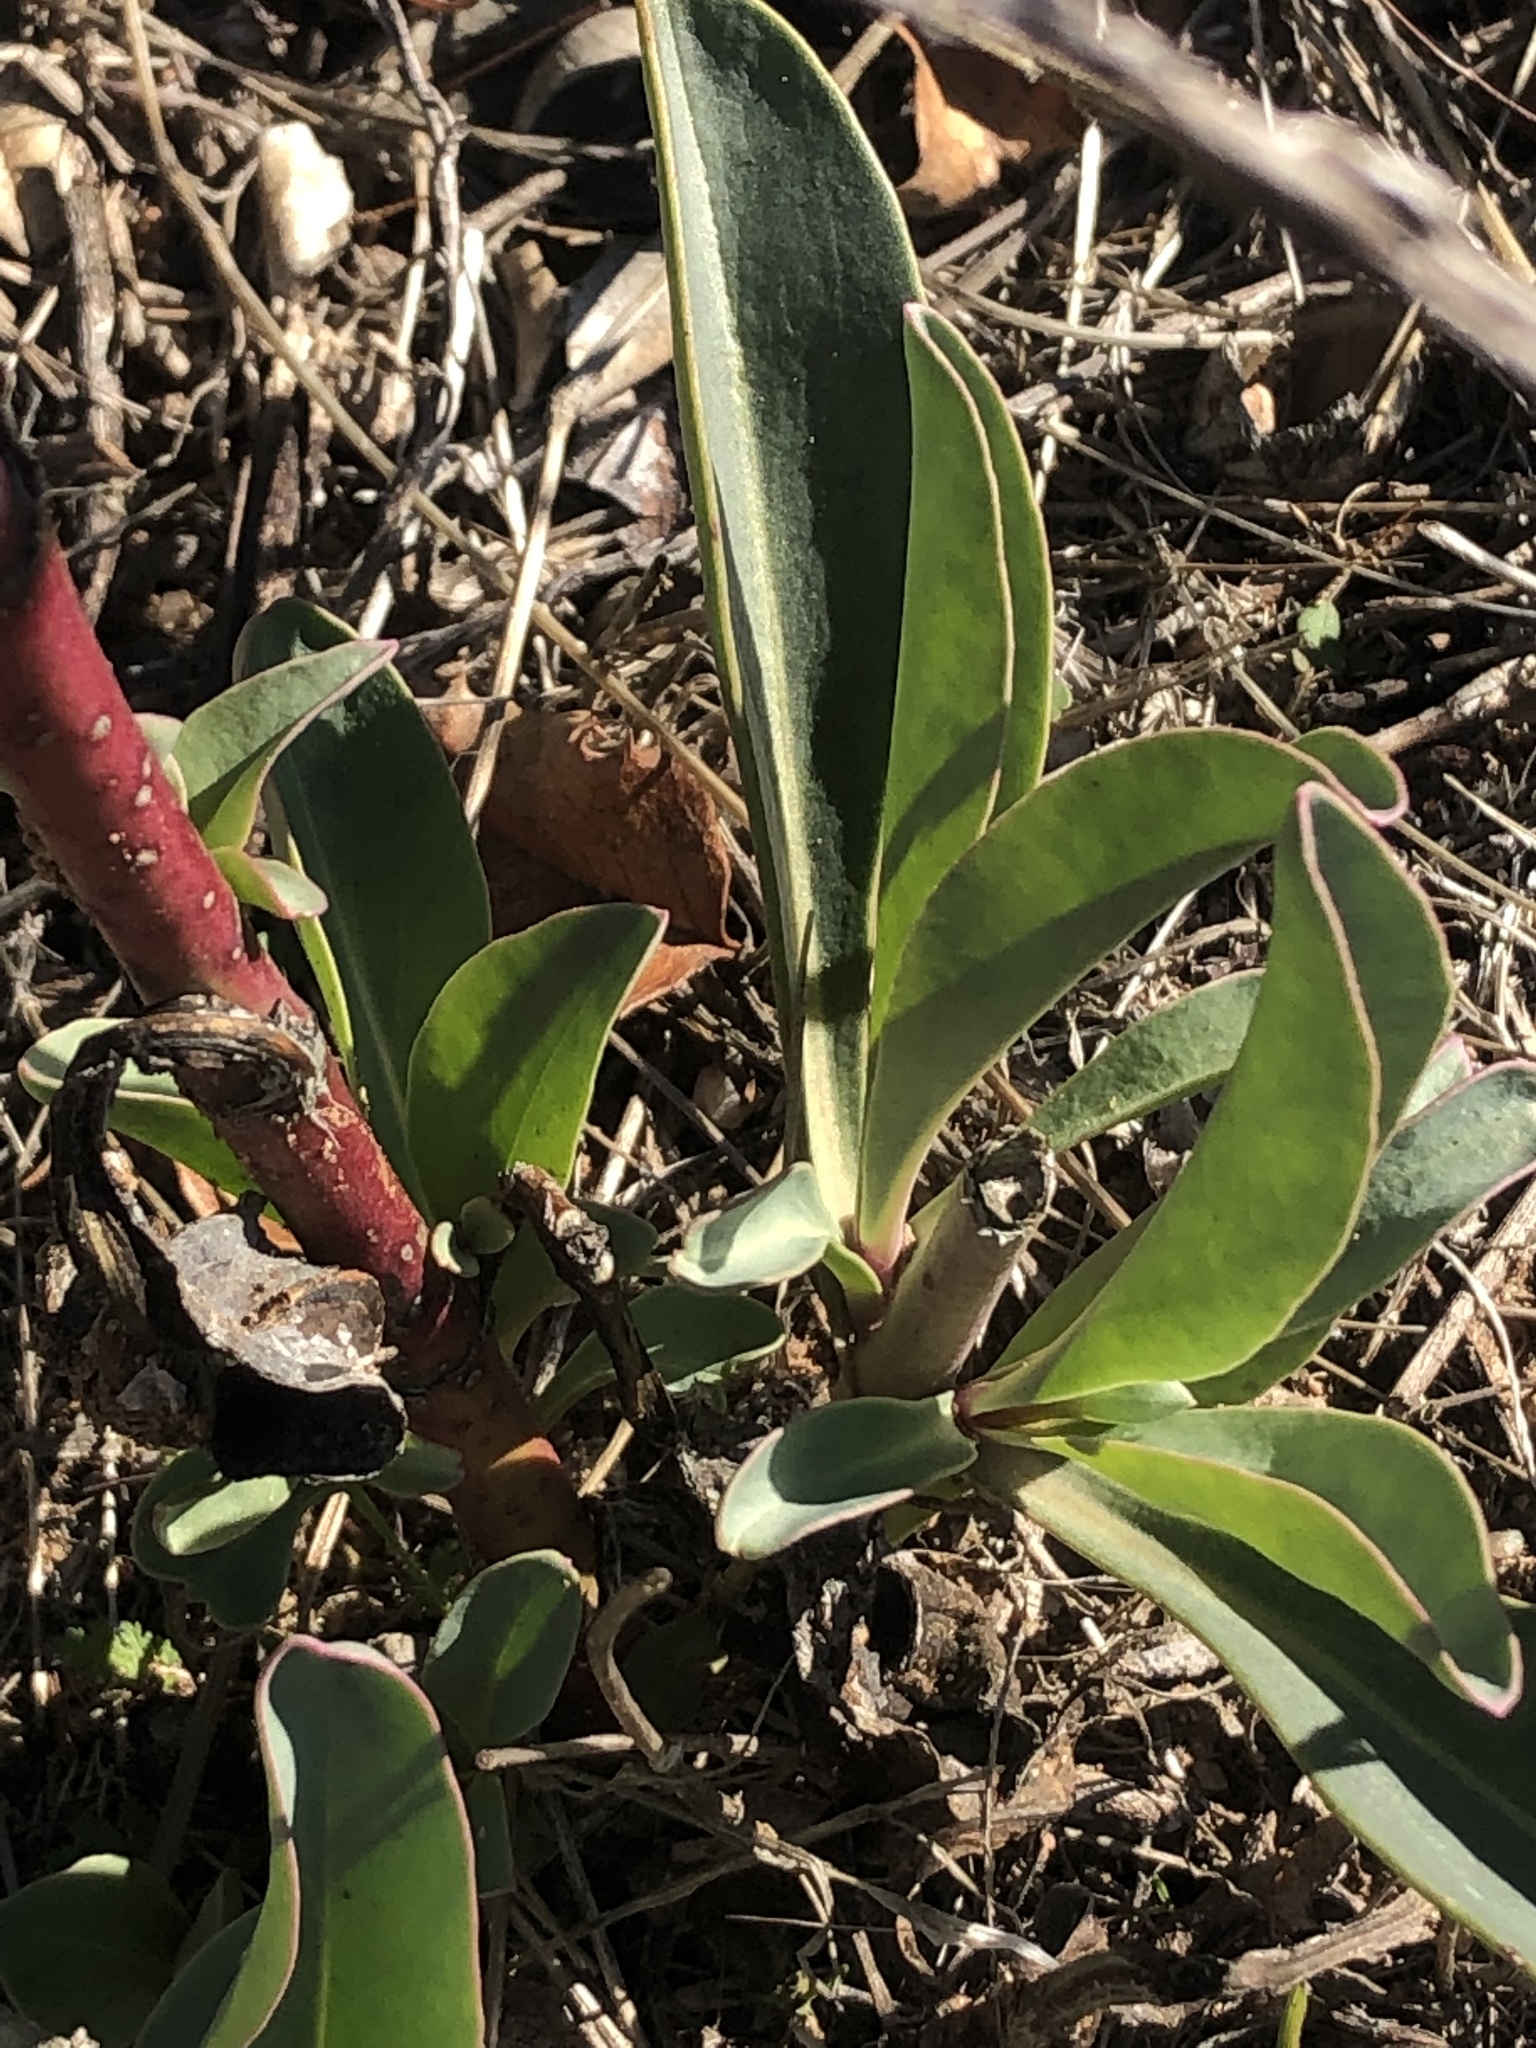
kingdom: Plantae
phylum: Tracheophyta
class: Magnoliopsida
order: Lamiales
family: Plantaginaceae
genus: Penstemon
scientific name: Penstemon centranthifolius
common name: Scarlet bugler
